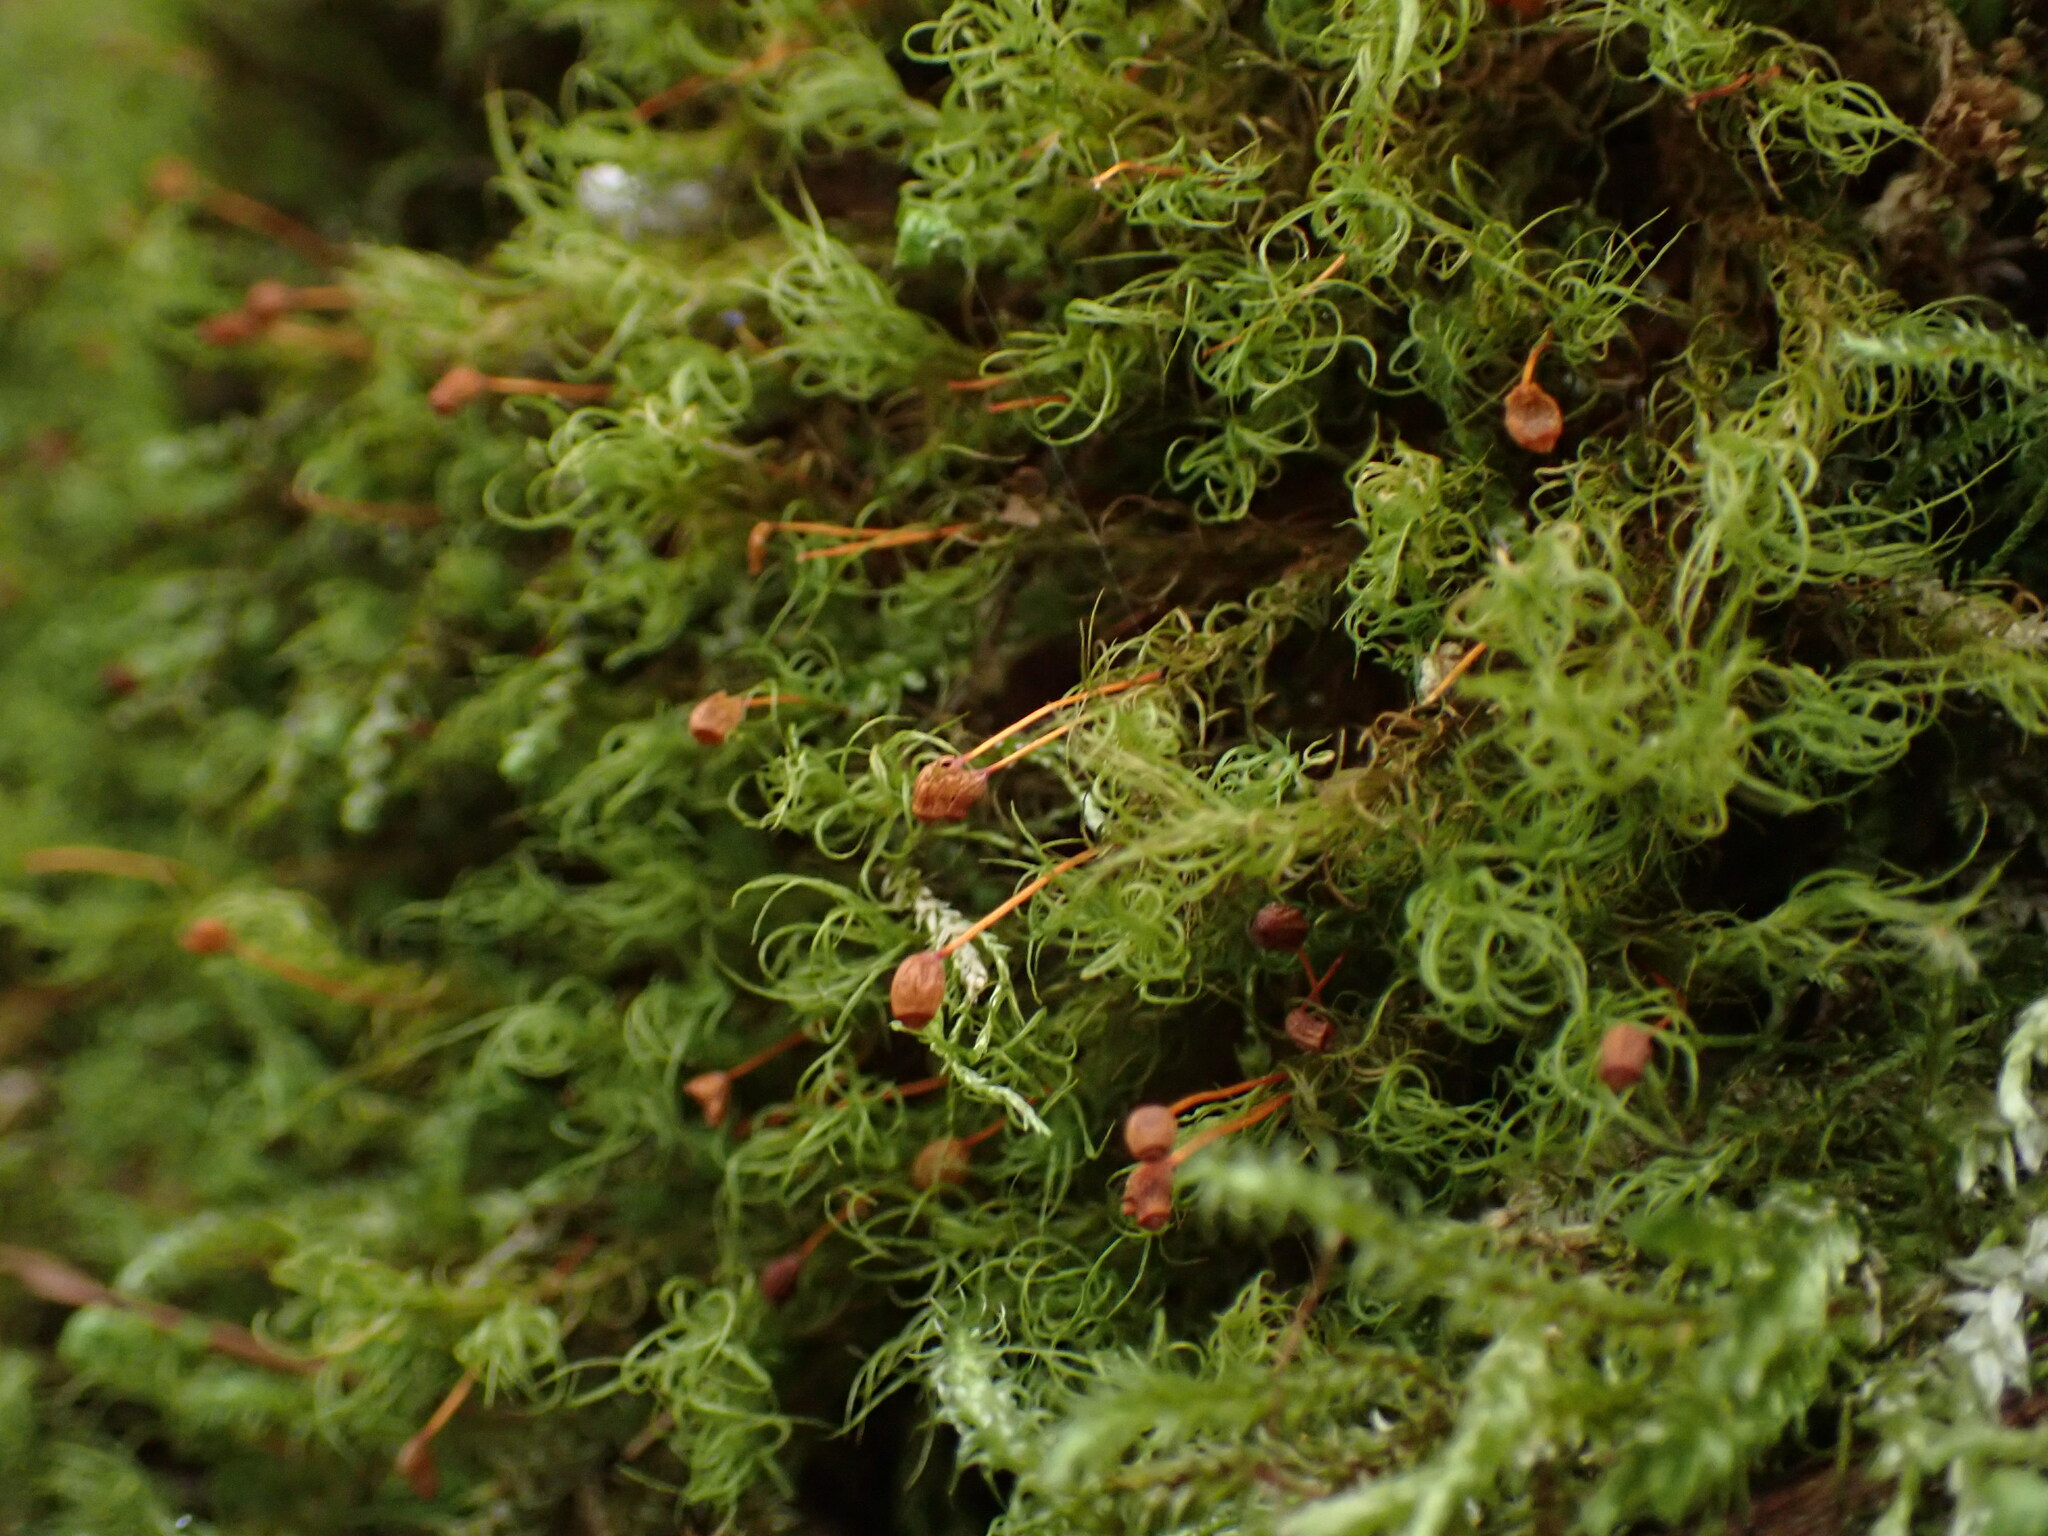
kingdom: Plantae
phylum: Bryophyta
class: Bryopsida
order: Bartramiales
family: Bartramiaceae
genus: Bartramia
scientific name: Bartramia ithyphylla
